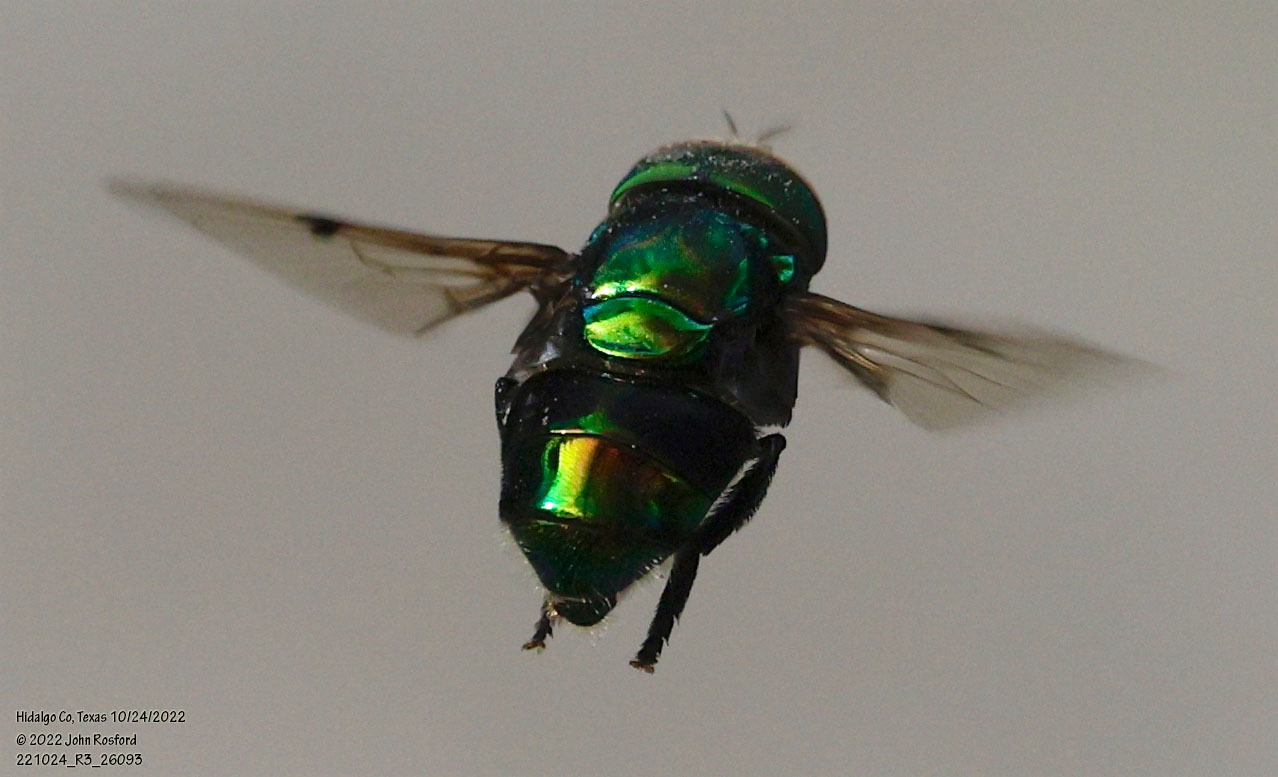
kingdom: Animalia
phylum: Arthropoda
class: Insecta
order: Diptera
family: Syrphidae
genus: Ornidia
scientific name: Ornidia obesa
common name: Syrphid fly
